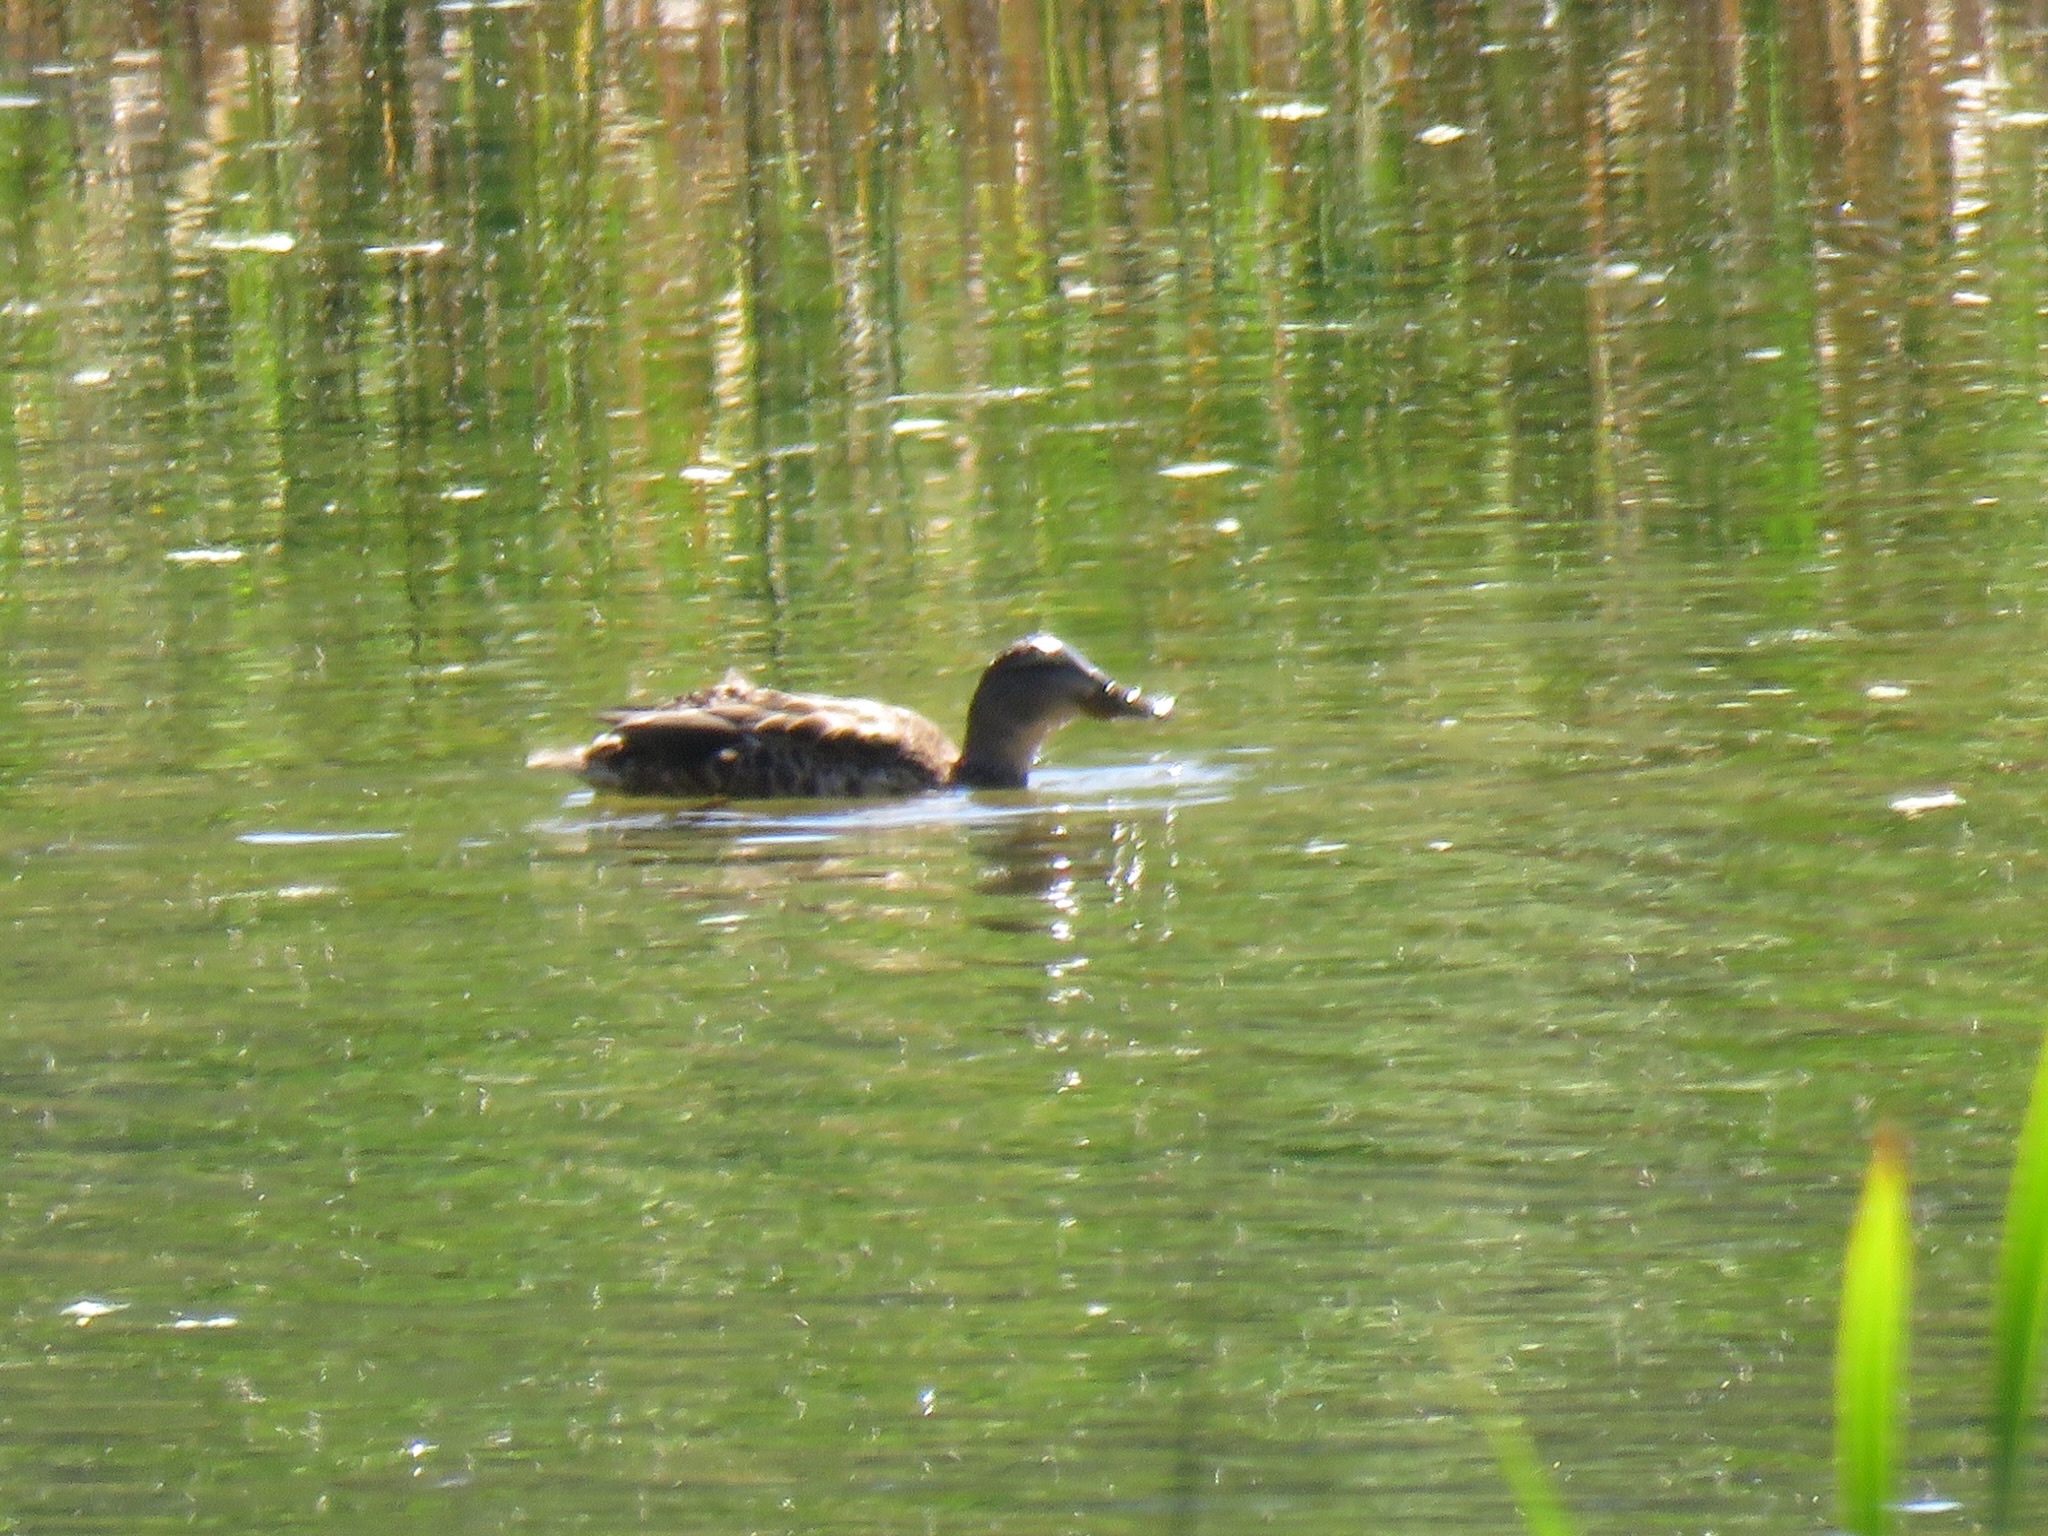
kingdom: Animalia
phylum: Chordata
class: Aves
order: Anseriformes
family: Anatidae
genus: Anas
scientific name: Anas platyrhynchos
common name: Mallard
